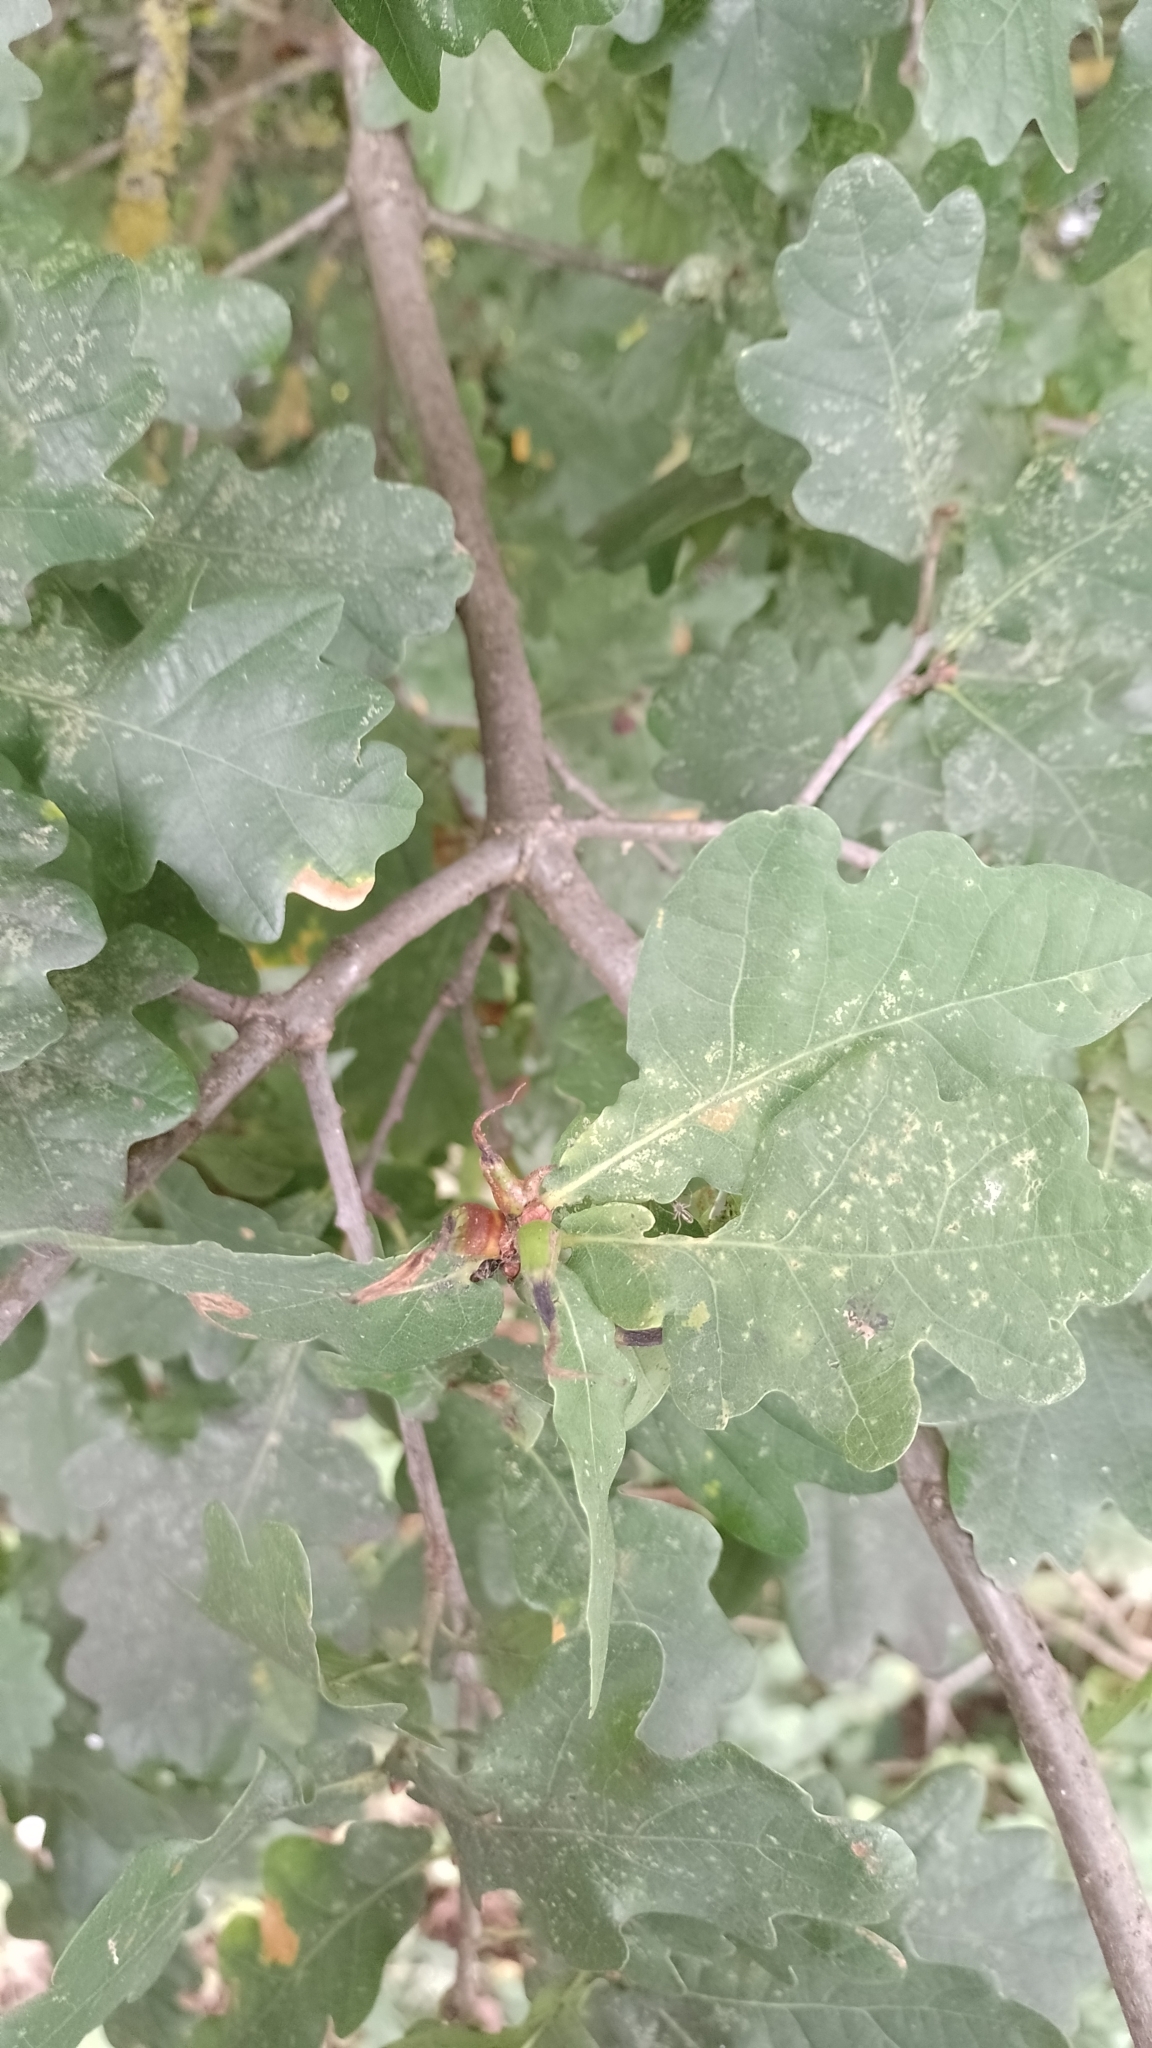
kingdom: Animalia
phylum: Arthropoda
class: Insecta
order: Hymenoptera
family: Cynipidae
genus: Andricus
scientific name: Andricus aries
